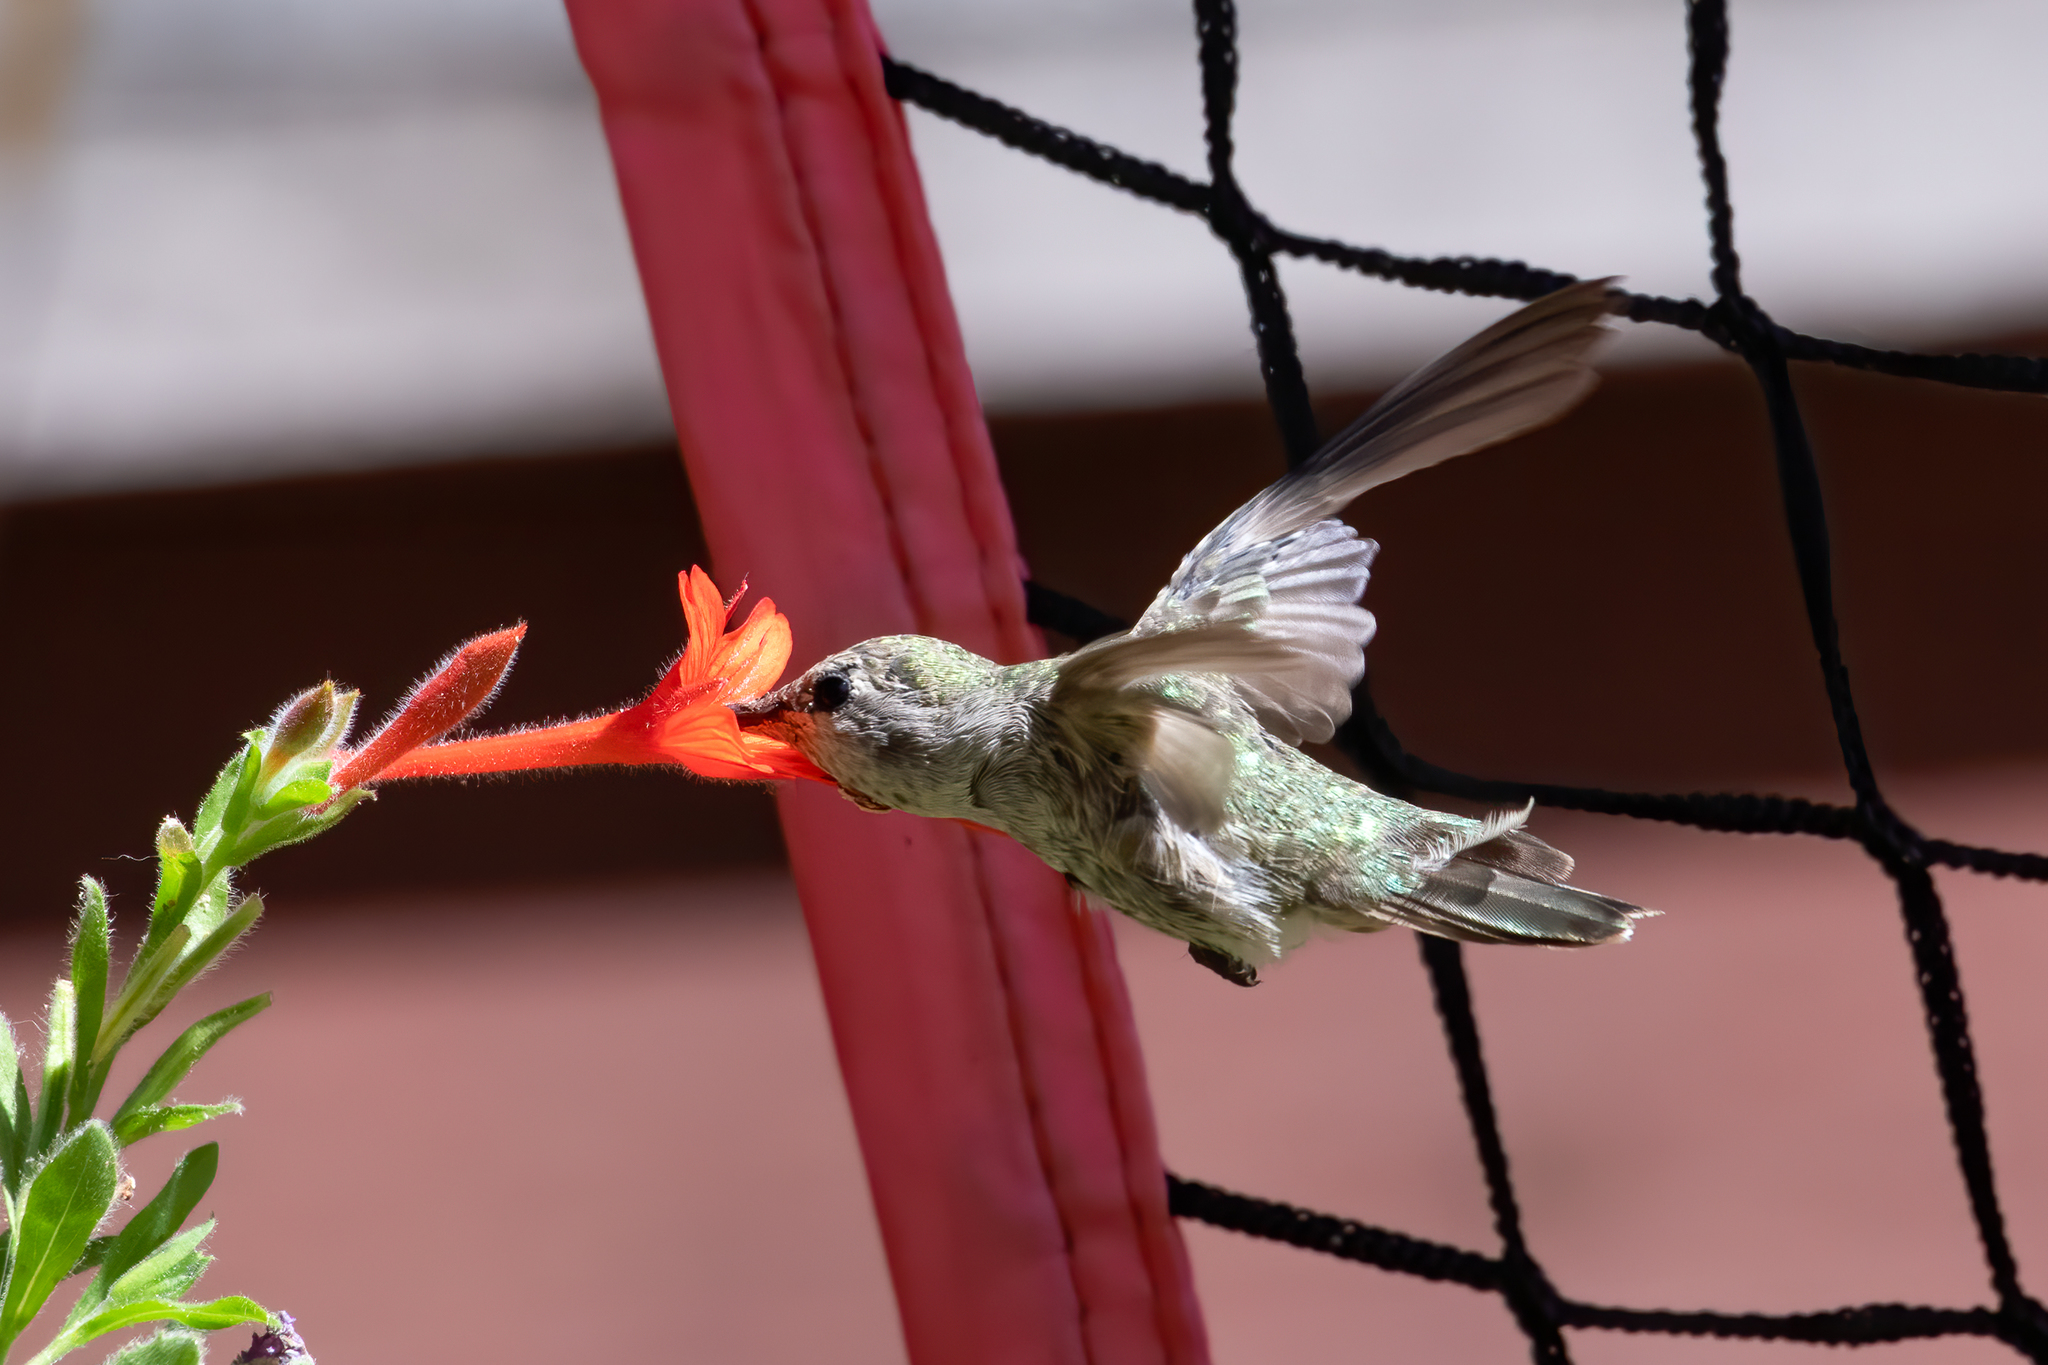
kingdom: Animalia
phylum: Chordata
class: Aves
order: Apodiformes
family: Trochilidae
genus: Calypte
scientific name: Calypte anna
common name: Anna's hummingbird
